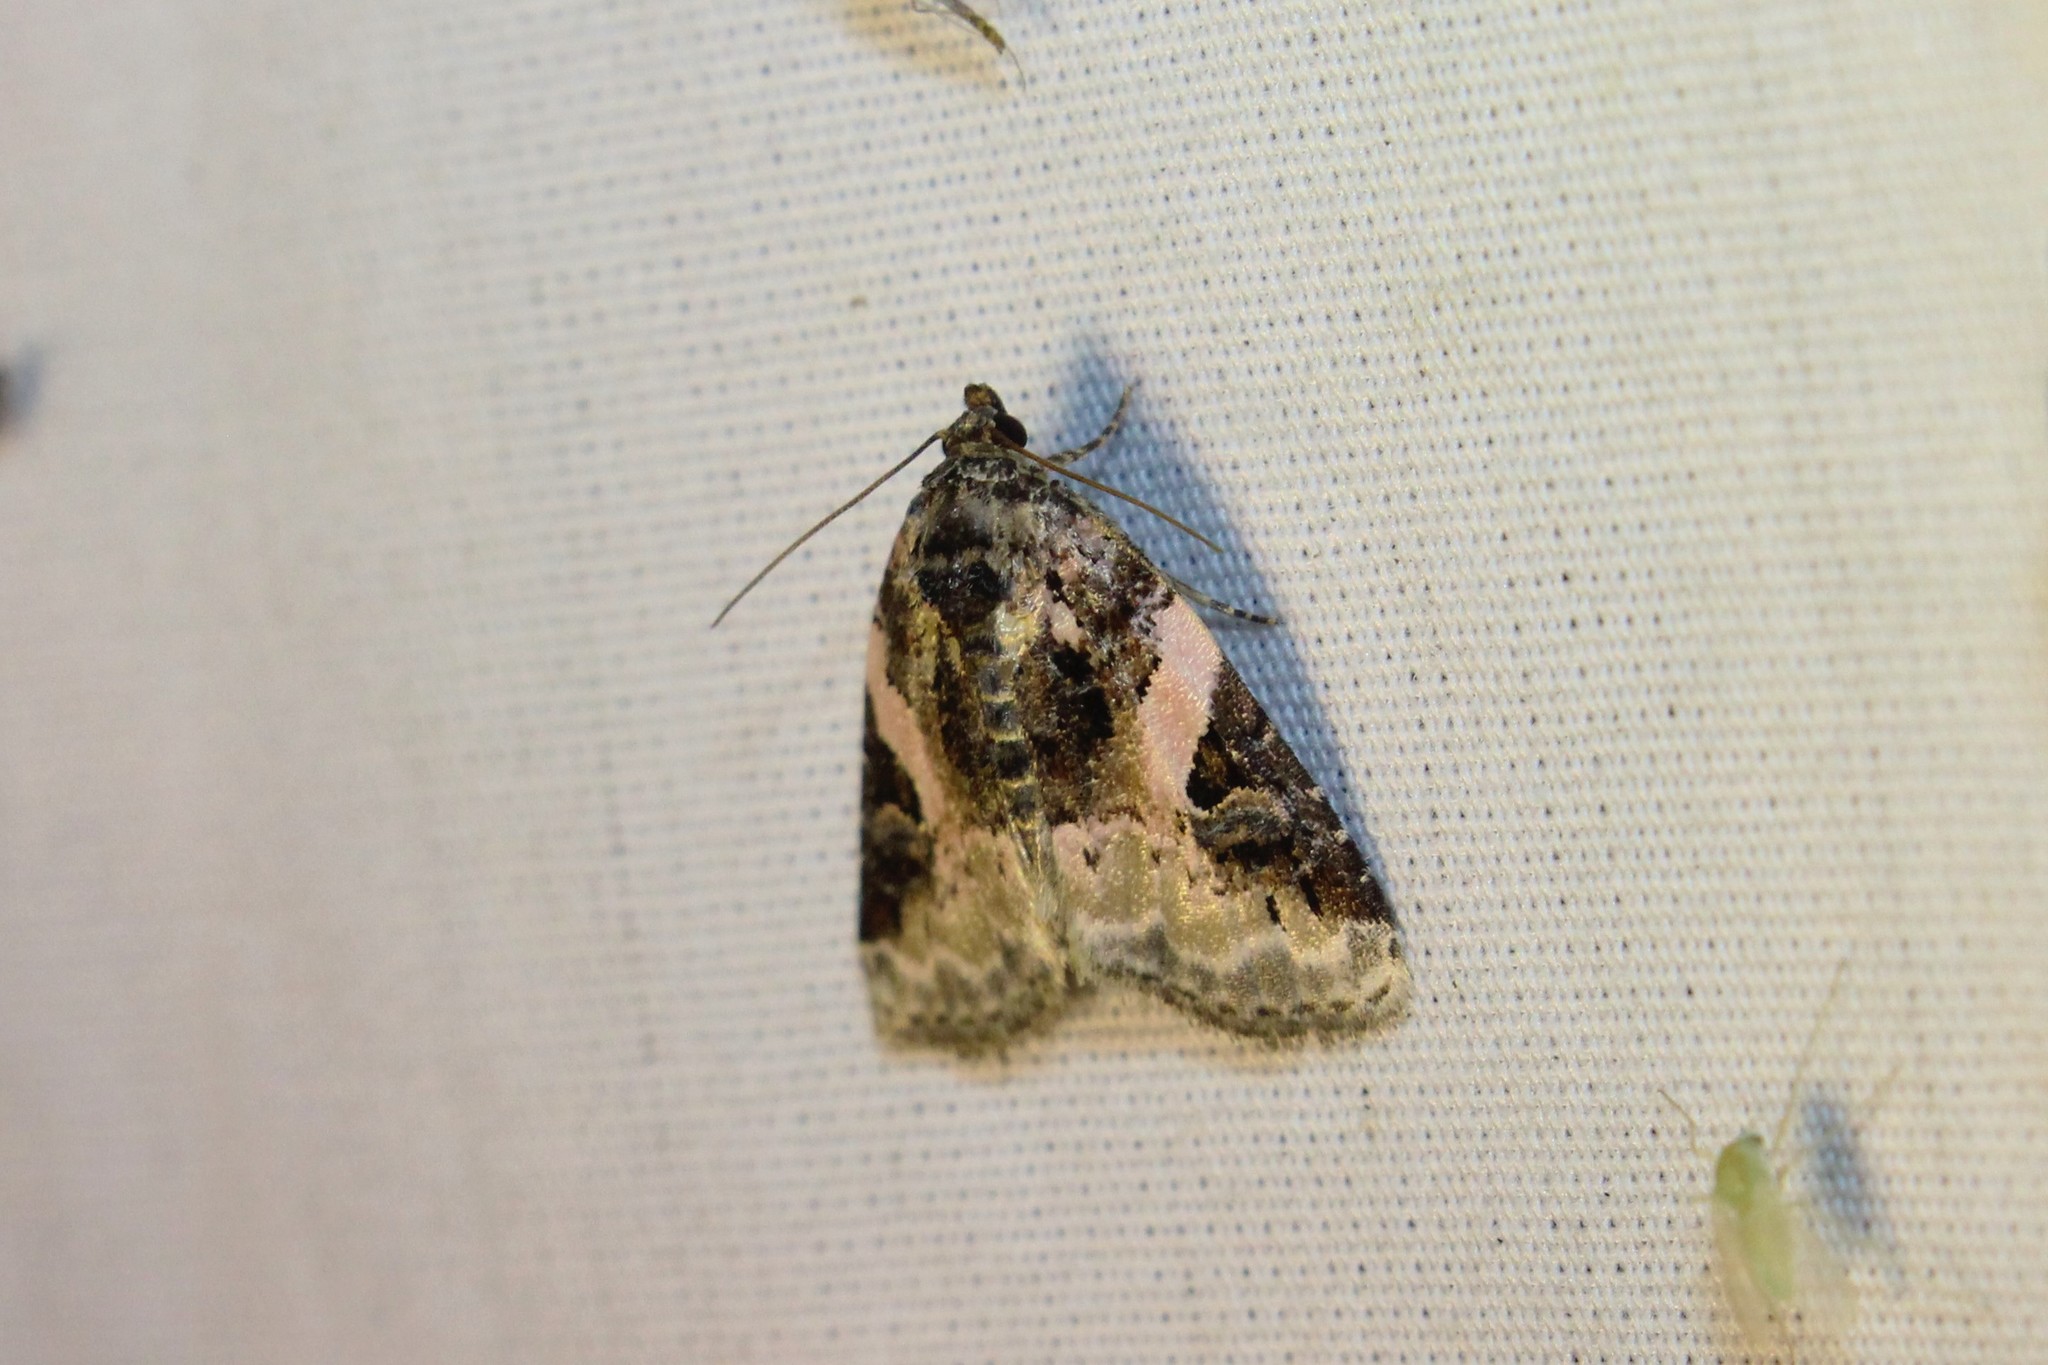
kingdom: Animalia
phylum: Arthropoda
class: Insecta
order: Lepidoptera
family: Noctuidae
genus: Pseudeustrotia
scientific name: Pseudeustrotia carneola
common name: Pink-barred lithacodia moth
